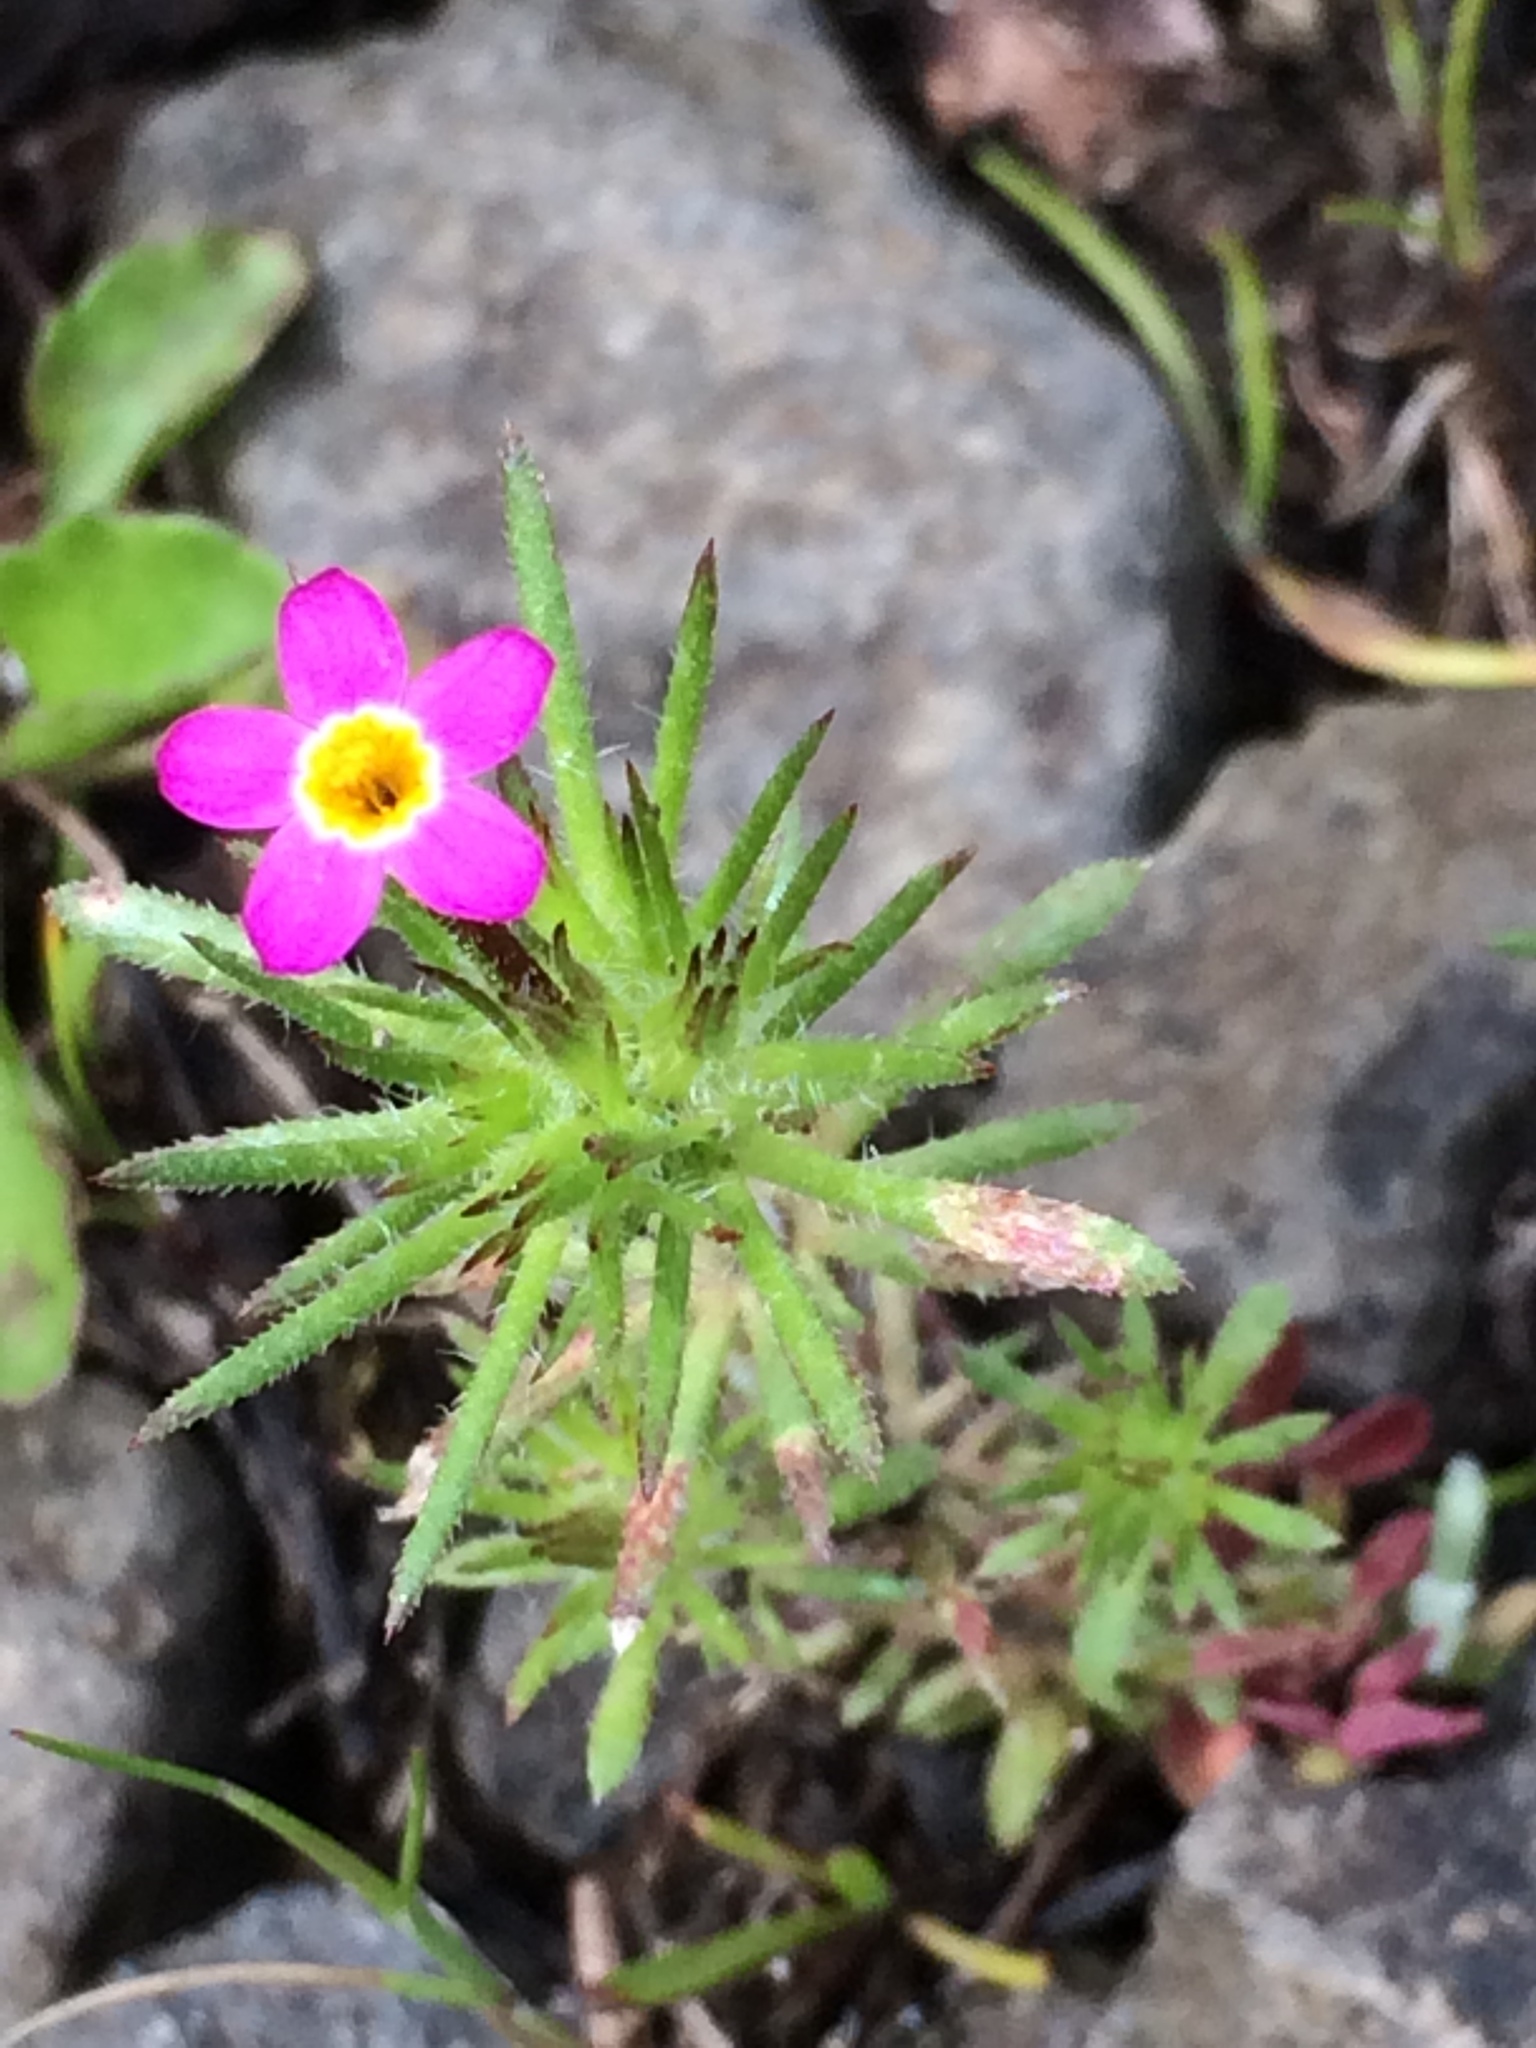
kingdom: Plantae
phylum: Tracheophyta
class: Magnoliopsida
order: Ericales
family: Polemoniaceae
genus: Leptosiphon
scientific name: Leptosiphon bicolor
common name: True babystars
